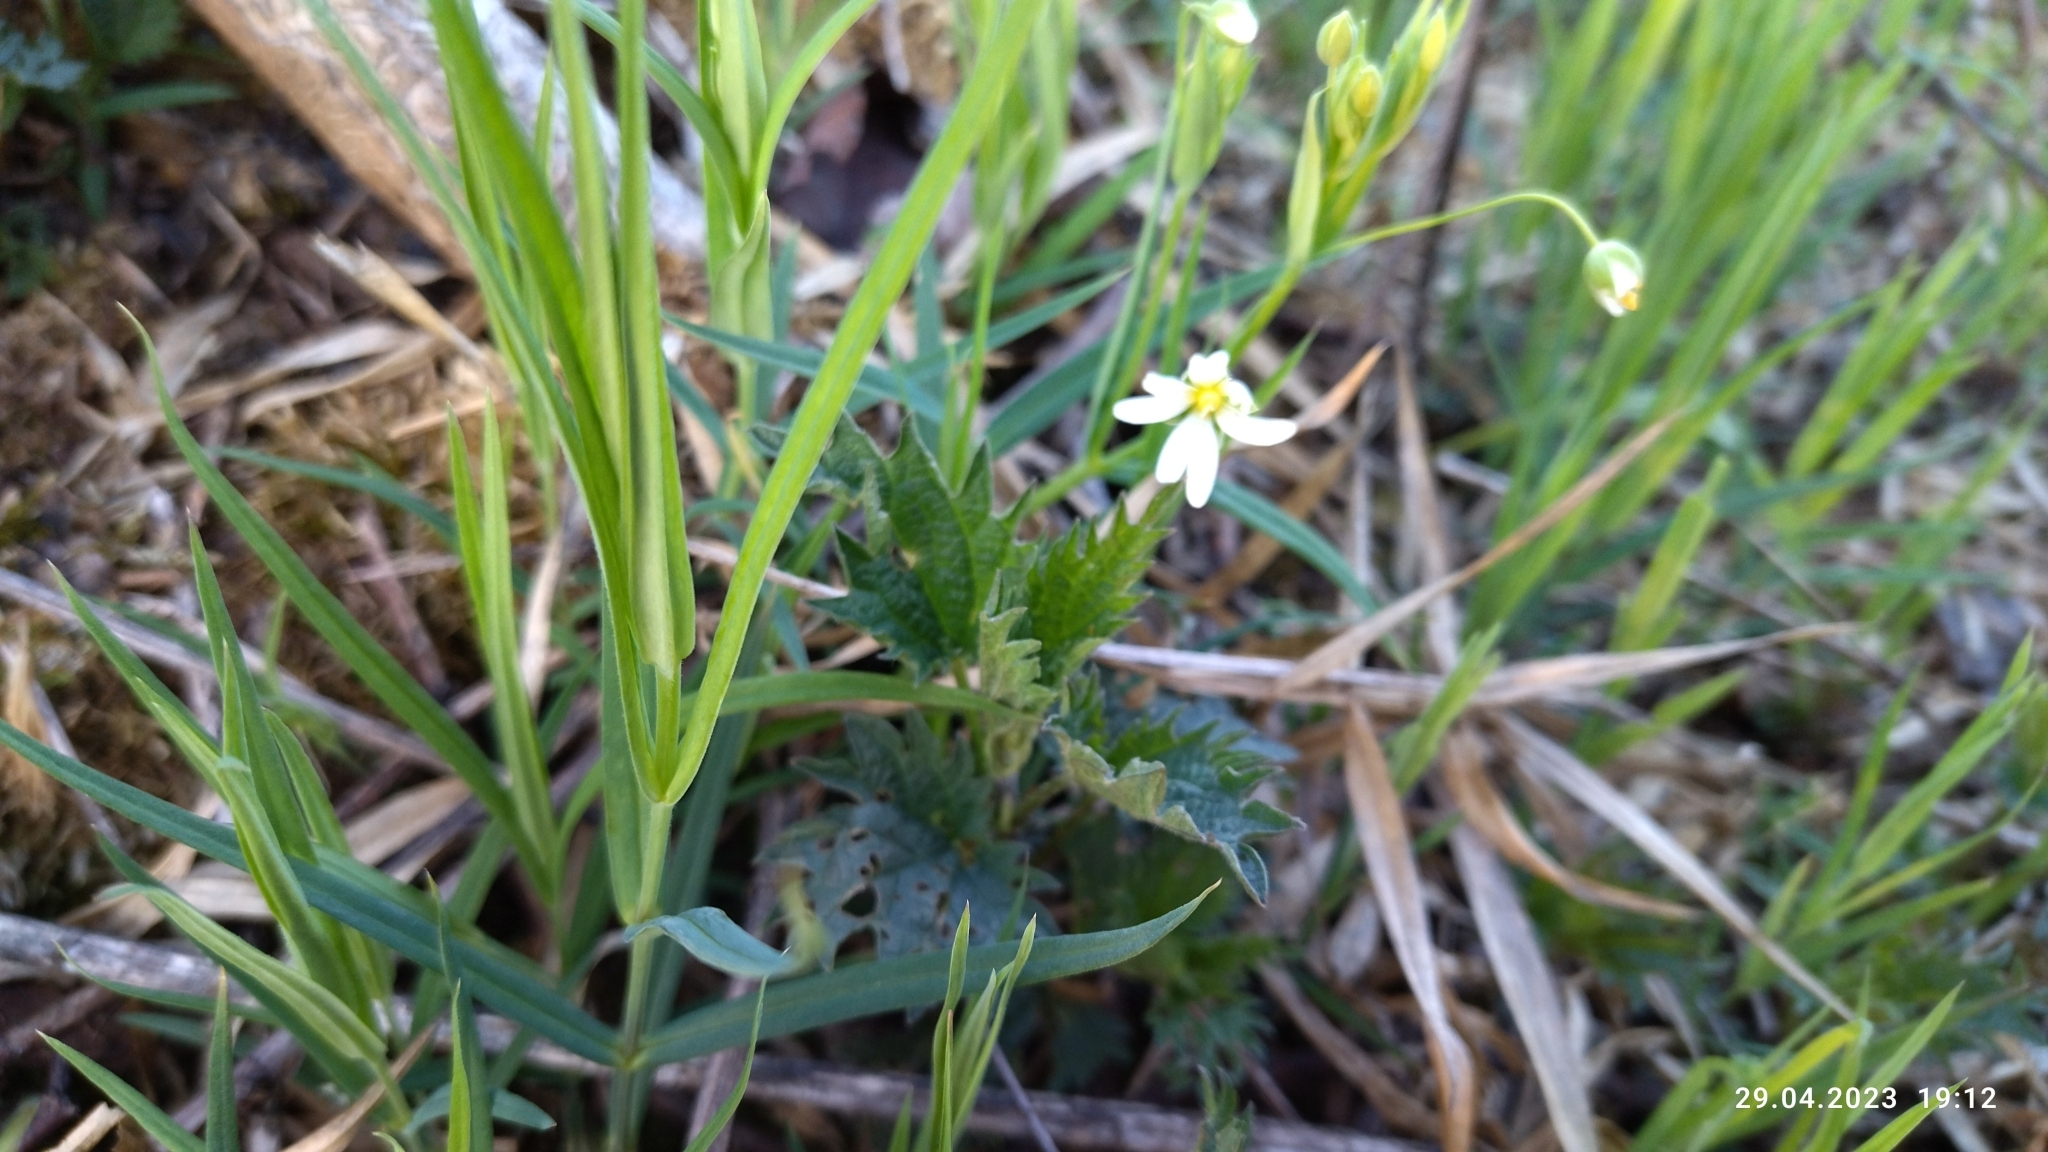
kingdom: Plantae
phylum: Tracheophyta
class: Magnoliopsida
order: Caryophyllales
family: Caryophyllaceae
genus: Rabelera
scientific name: Rabelera holostea
